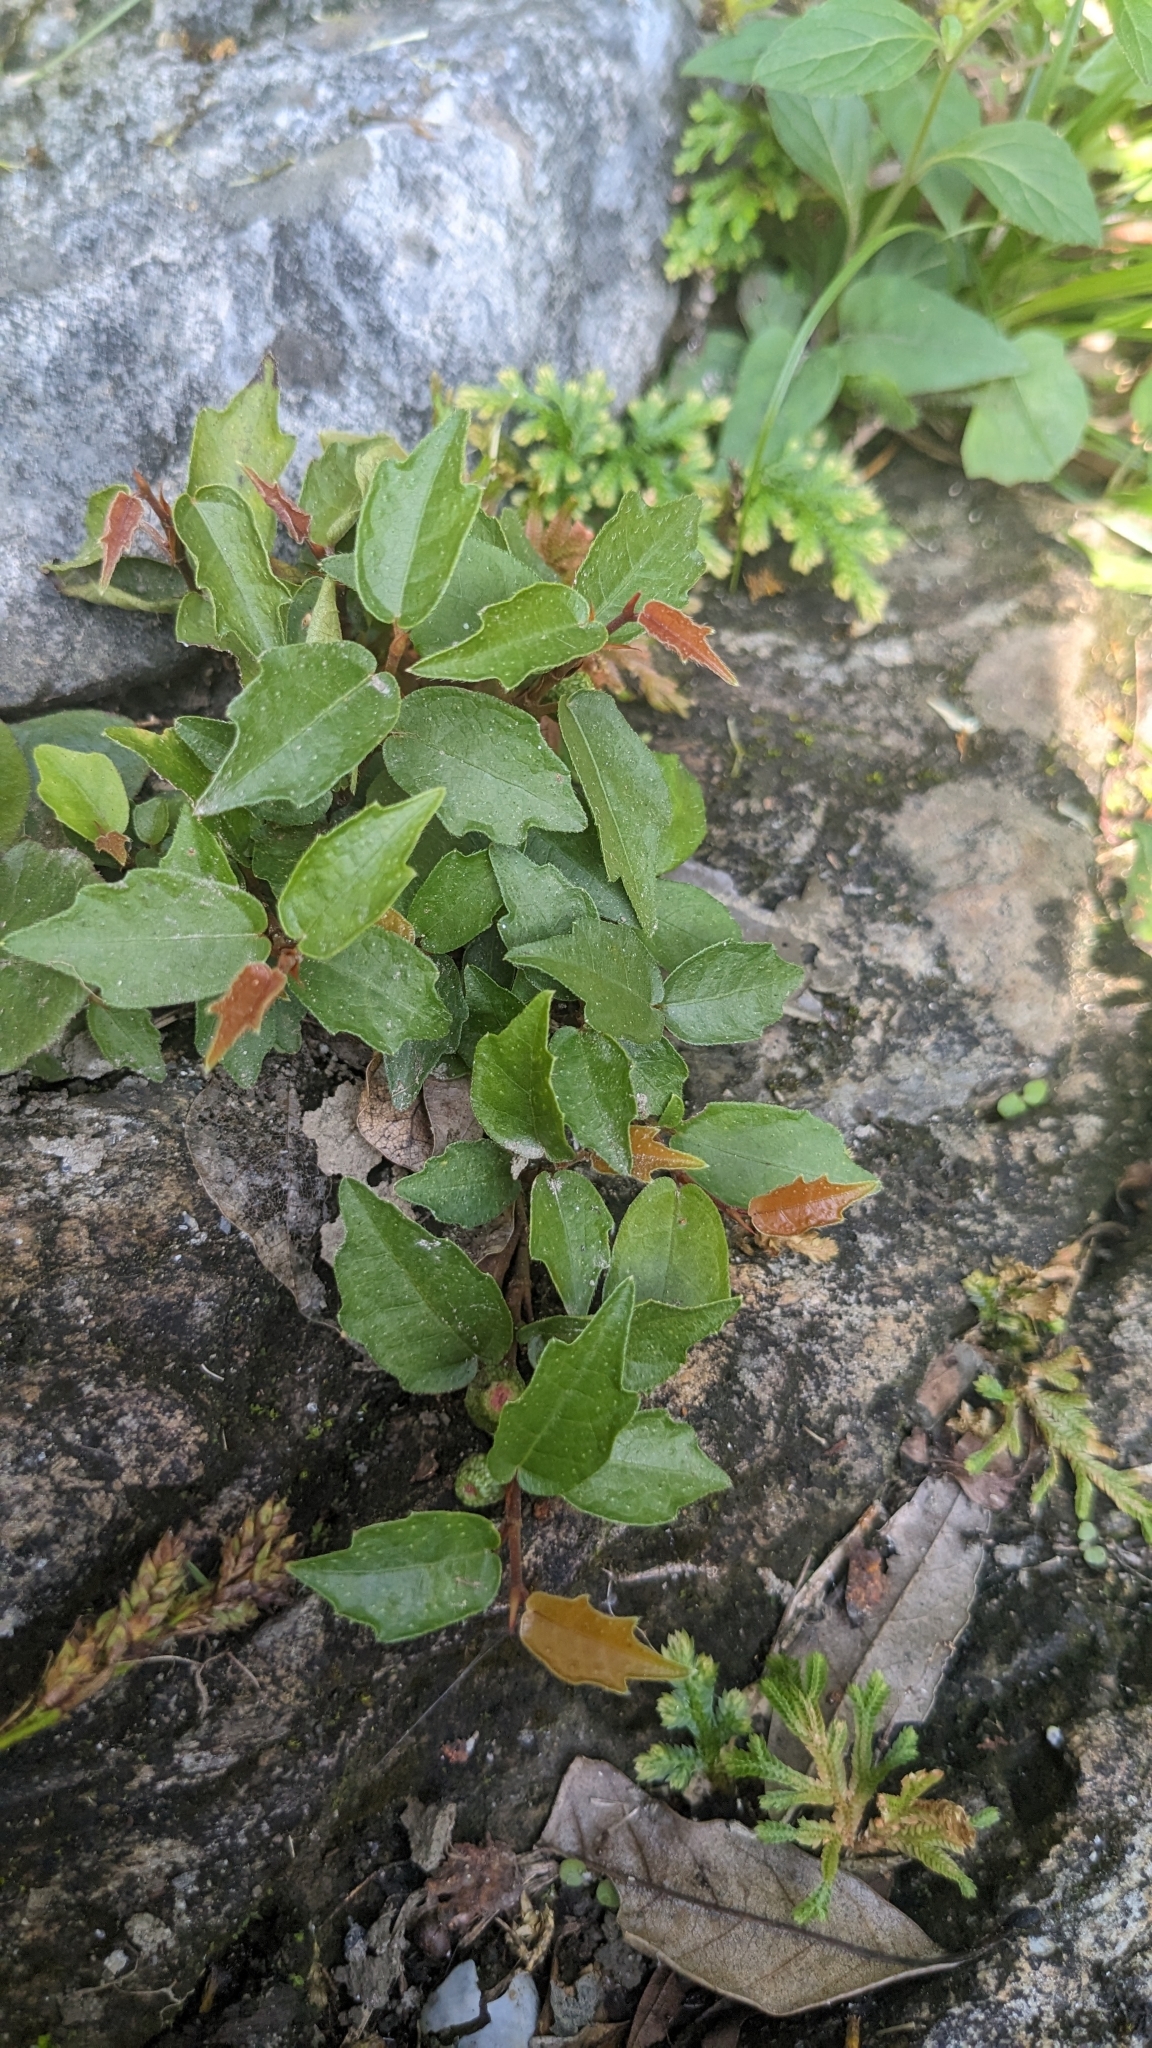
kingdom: Plantae
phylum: Tracheophyta
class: Magnoliopsida
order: Rosales
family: Moraceae
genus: Ficus
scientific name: Ficus tannoensis
